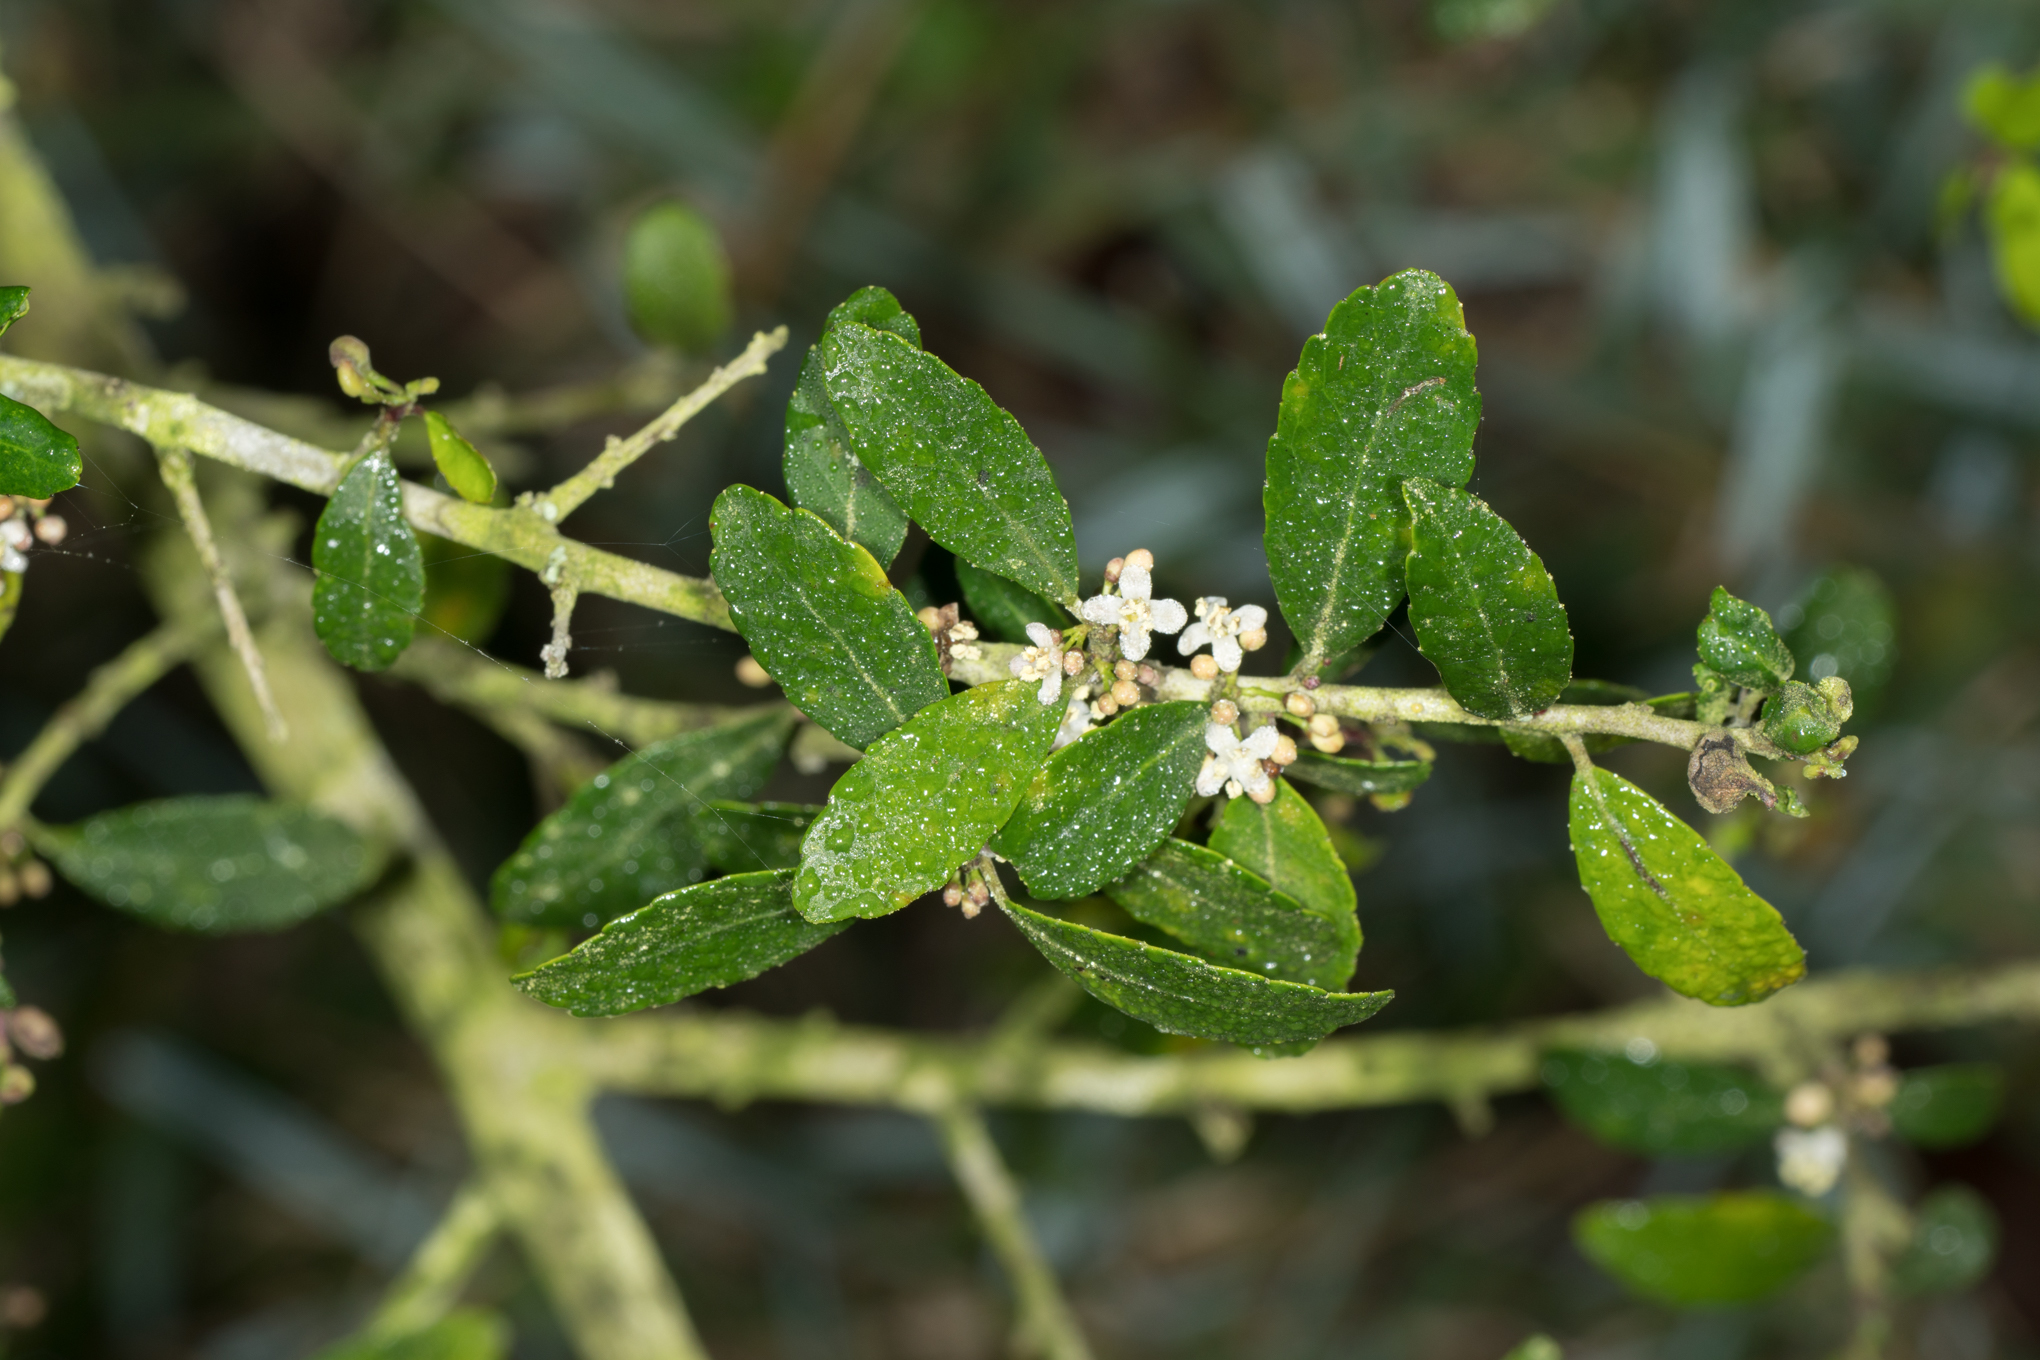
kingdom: Plantae
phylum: Tracheophyta
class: Magnoliopsida
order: Aquifoliales
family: Aquifoliaceae
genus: Ilex
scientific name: Ilex vomitoria
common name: Yaupon holly
